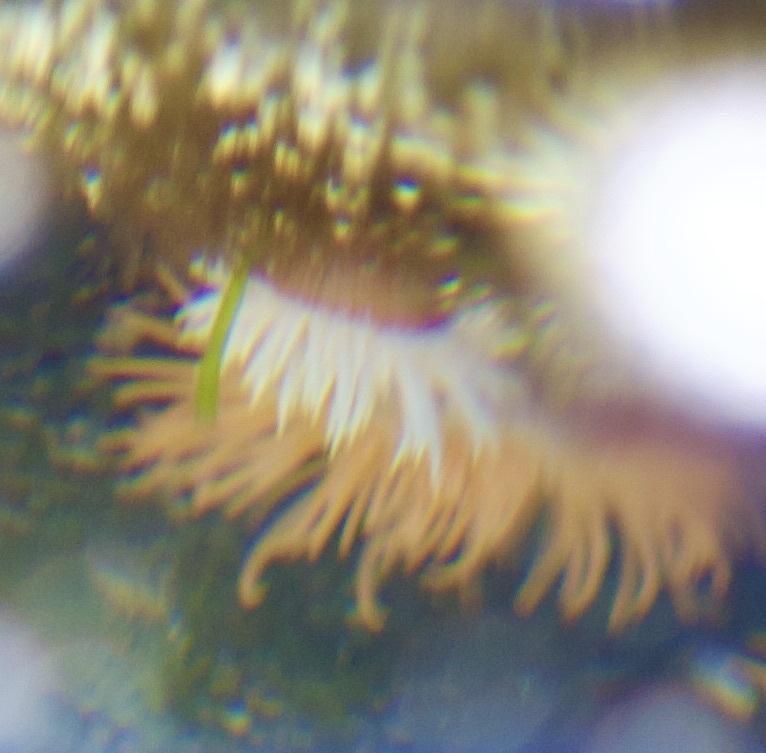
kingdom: Animalia
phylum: Cnidaria
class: Anthozoa
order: Actiniaria
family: Sagartiidae
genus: Anthothoe
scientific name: Anthothoe chilensis
